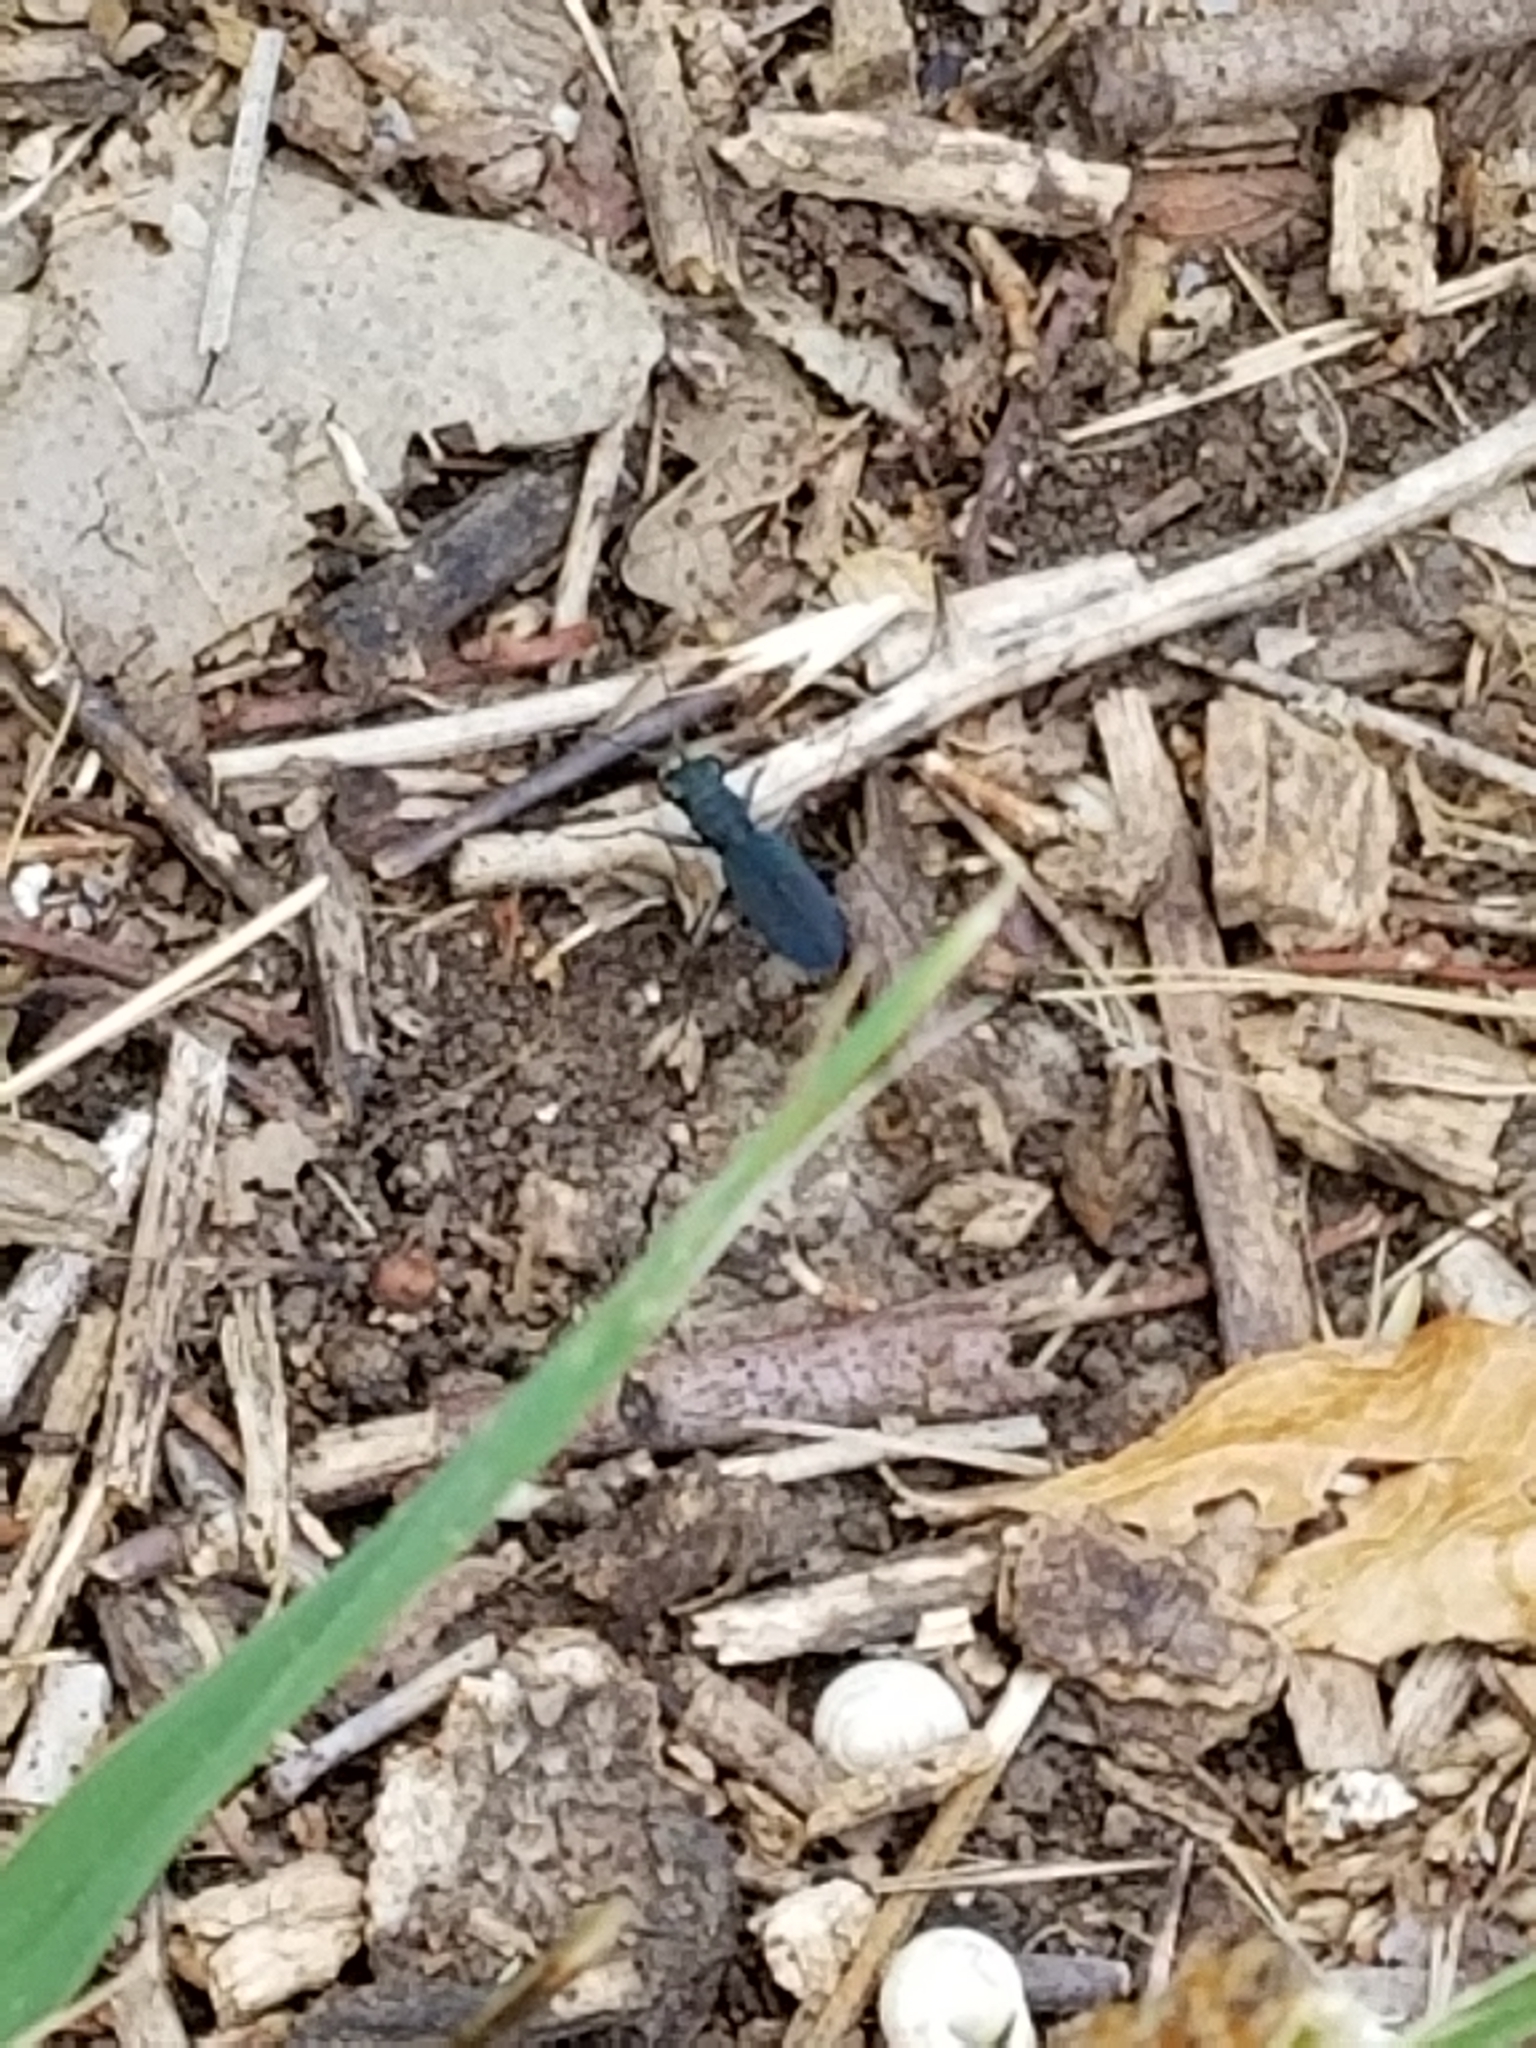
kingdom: Animalia
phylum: Arthropoda
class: Insecta
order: Coleoptera
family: Carabidae
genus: Dromochorus
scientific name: Dromochorus pruininus
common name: Frosted dromo tiger beetle
